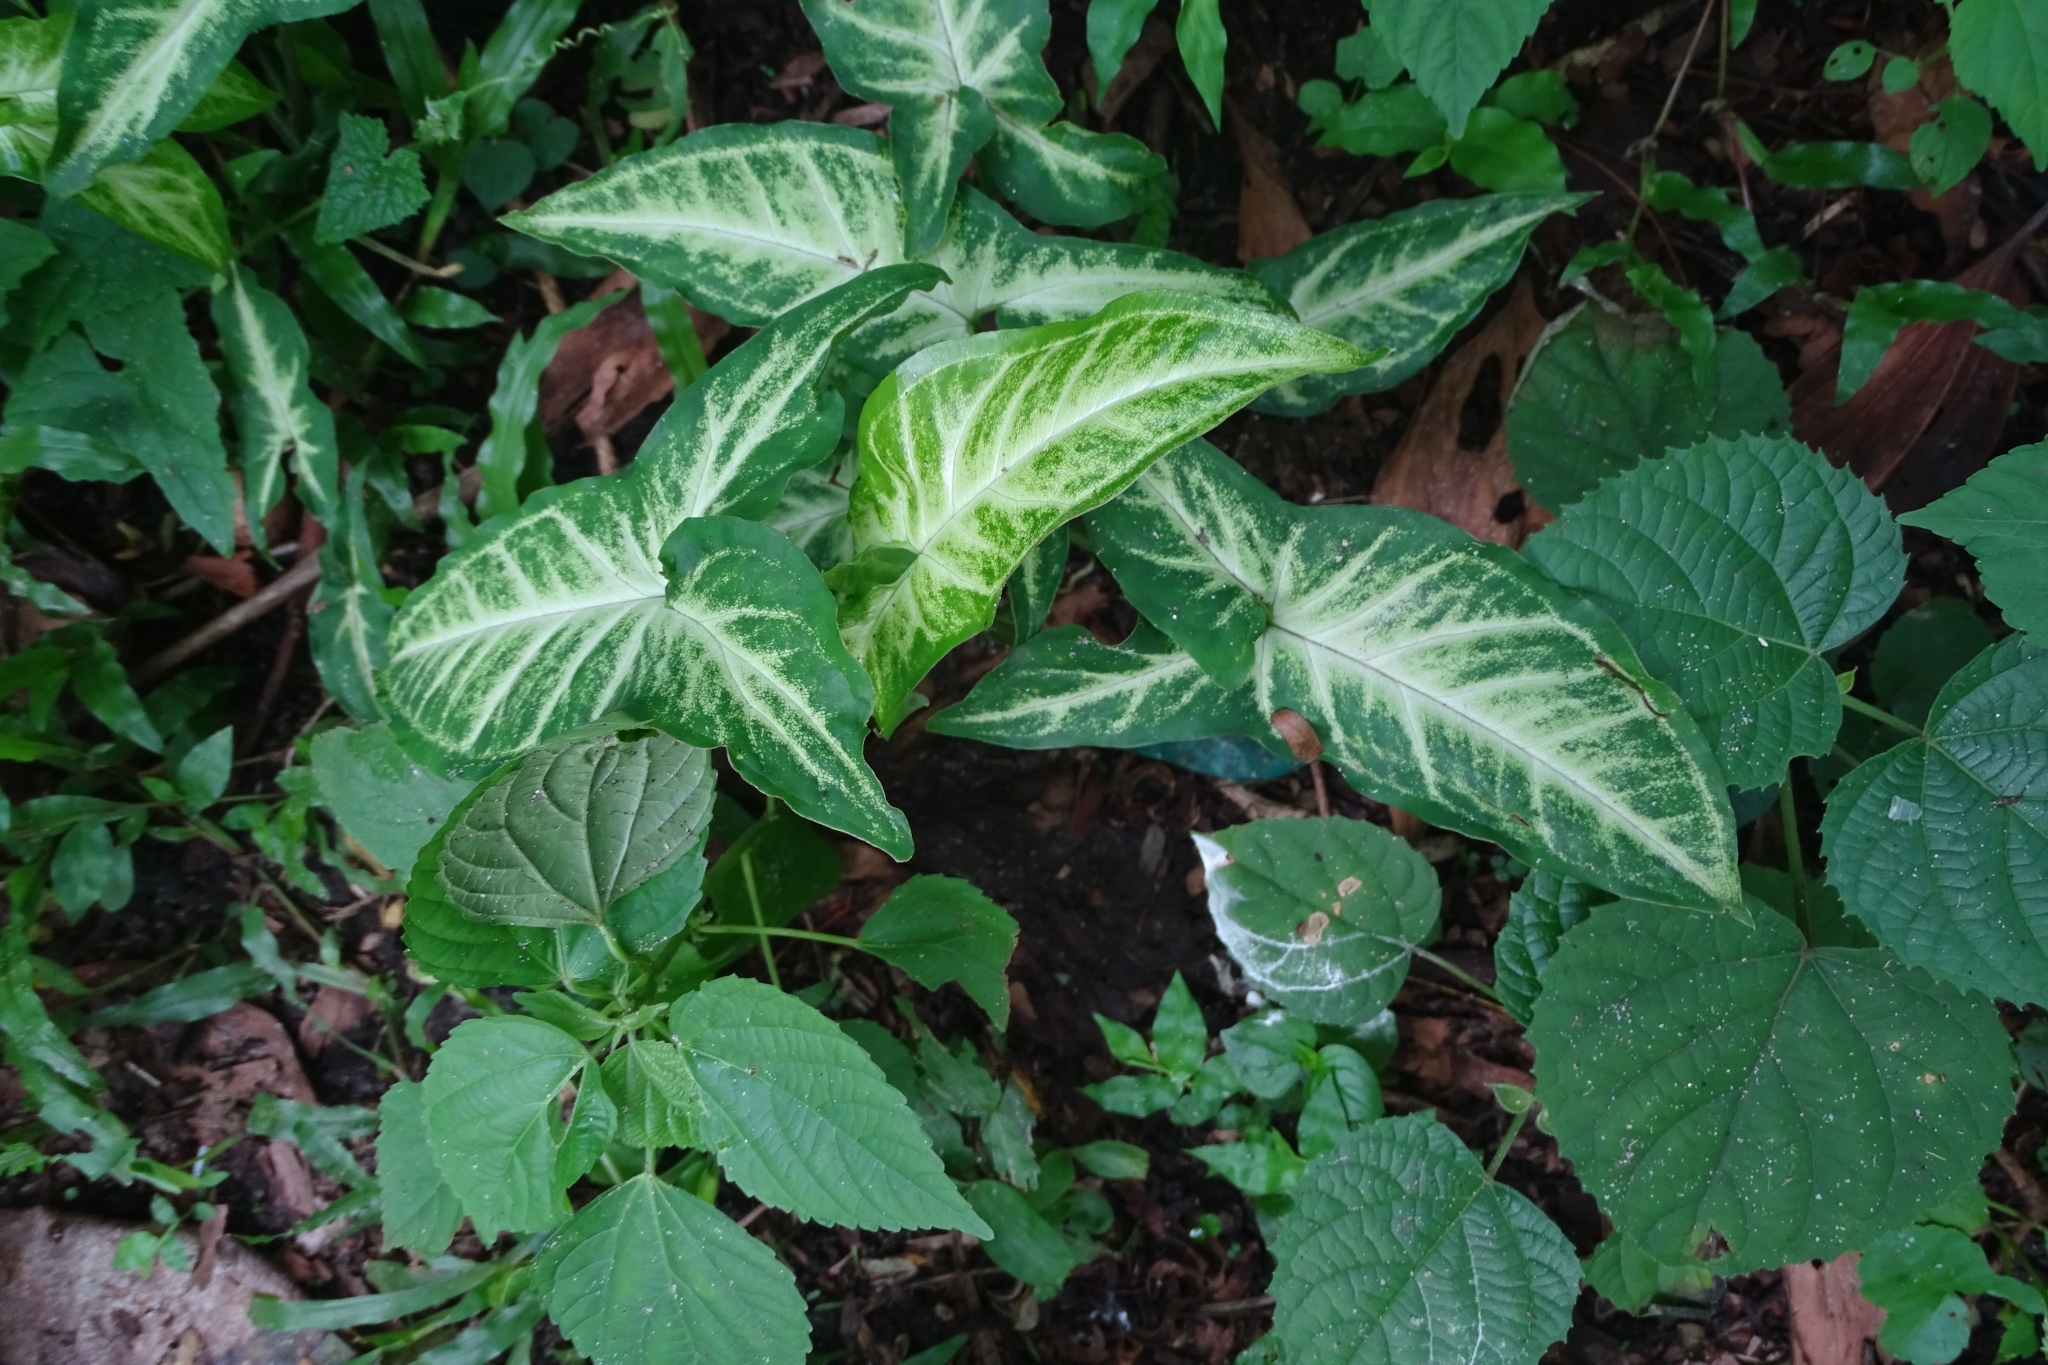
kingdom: Plantae
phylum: Tracheophyta
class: Liliopsida
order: Alismatales
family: Araceae
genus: Syngonium
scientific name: Syngonium podophyllum
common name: American evergreen
